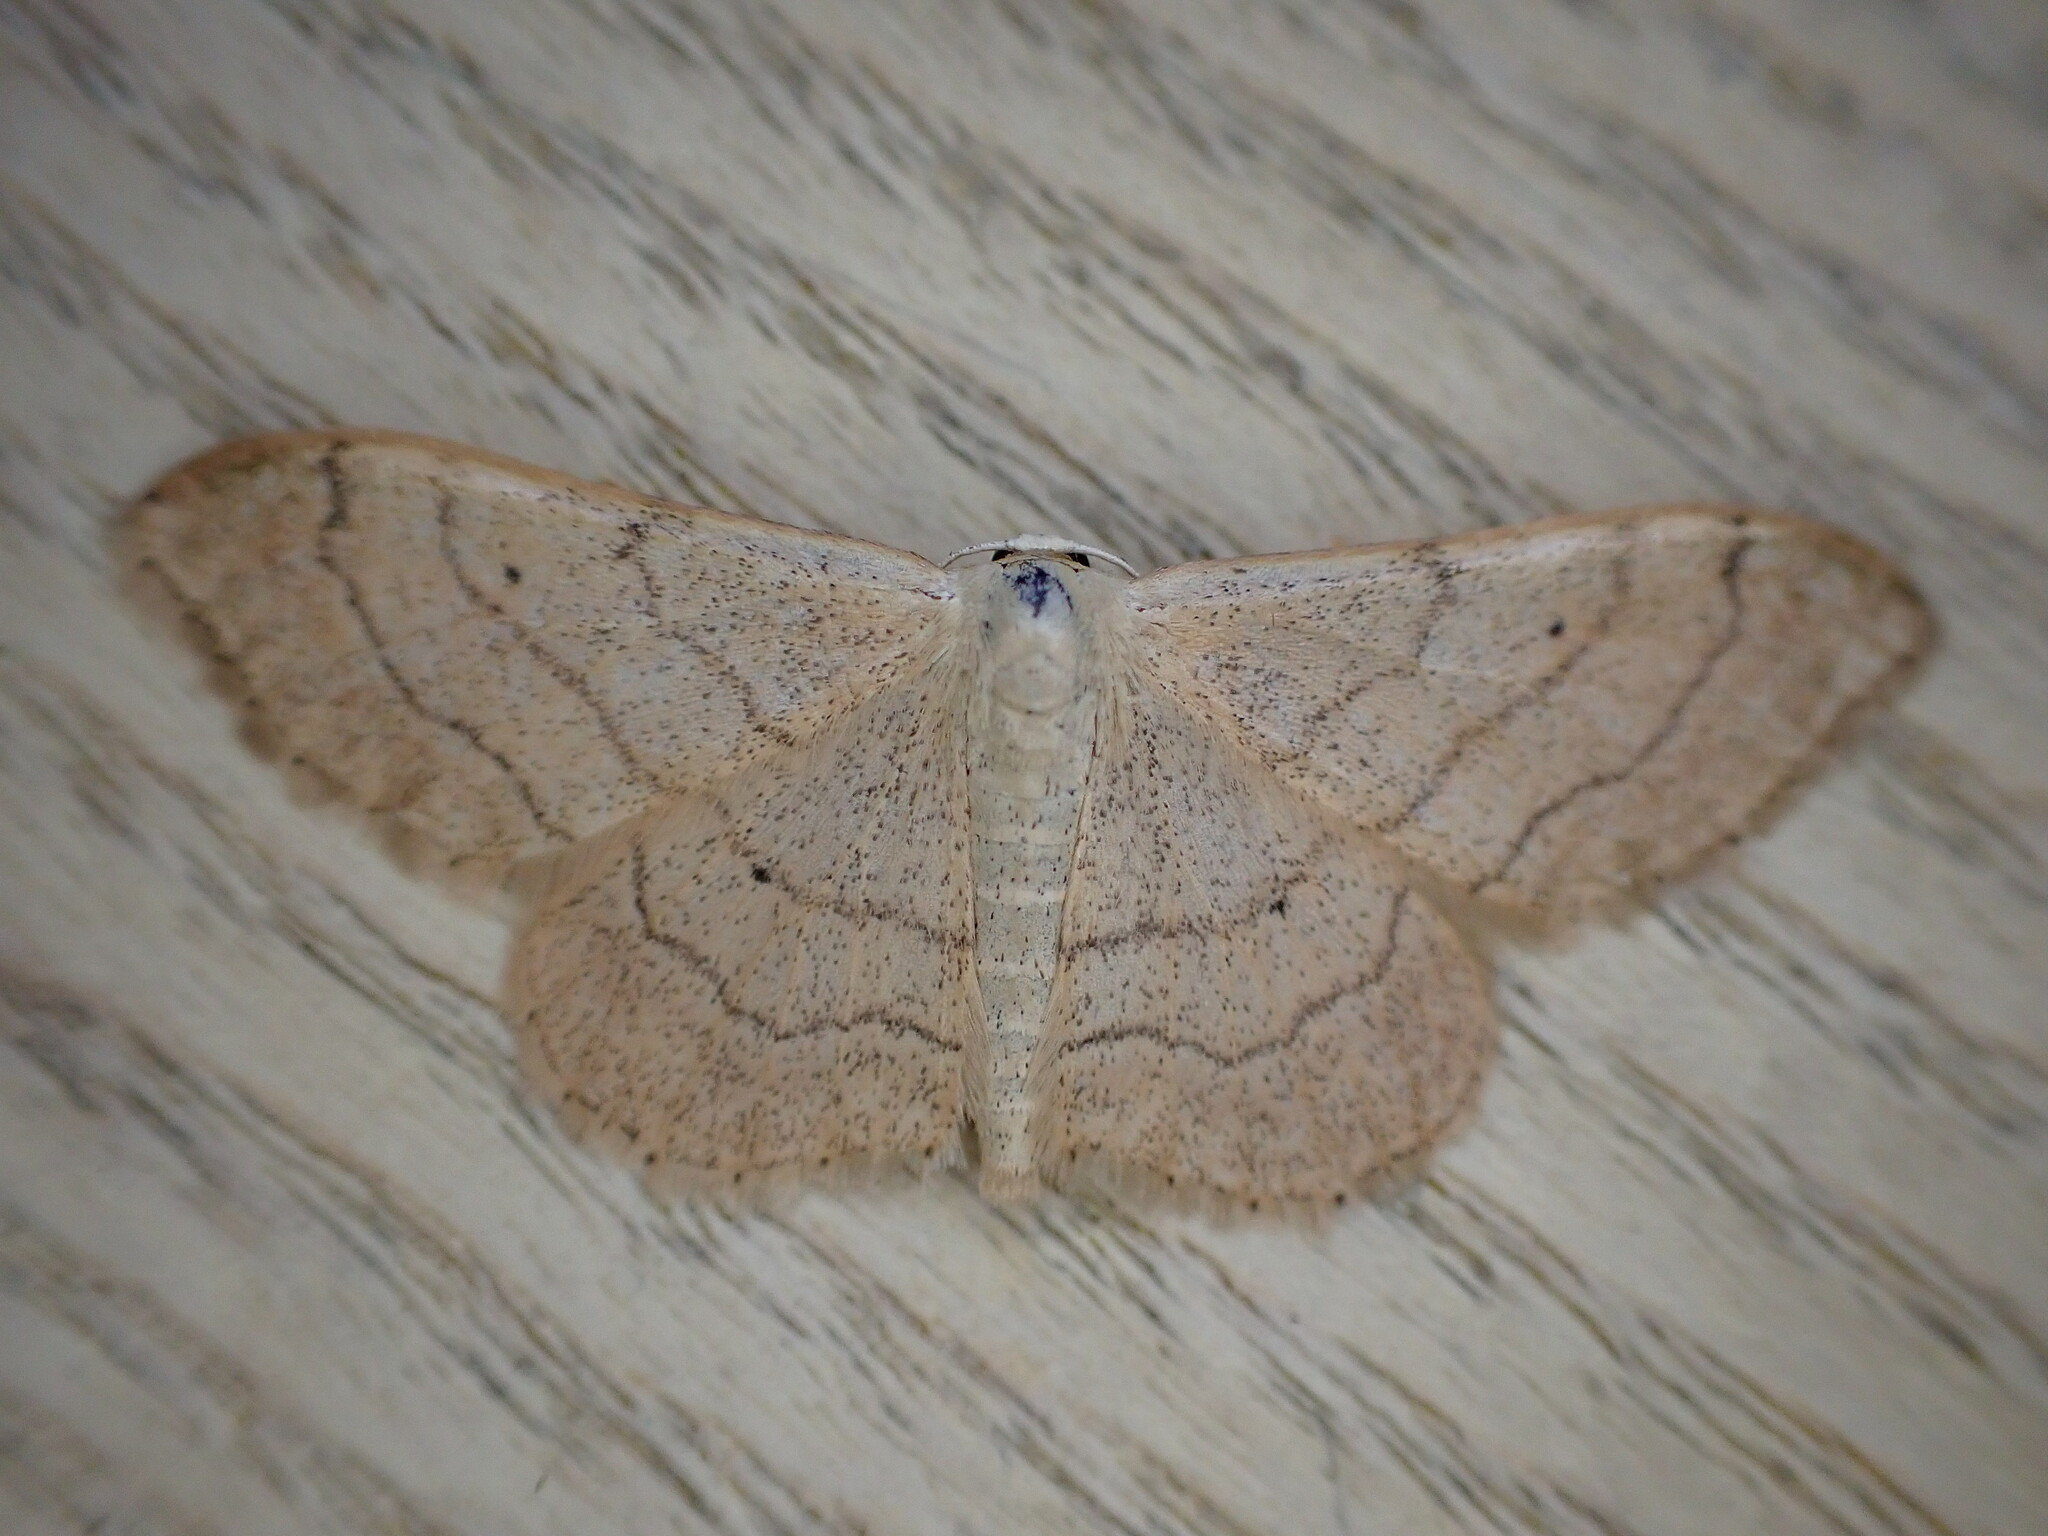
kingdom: Animalia
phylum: Arthropoda
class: Insecta
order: Lepidoptera
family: Geometridae
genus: Idaea
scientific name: Idaea aversata
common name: Riband wave
